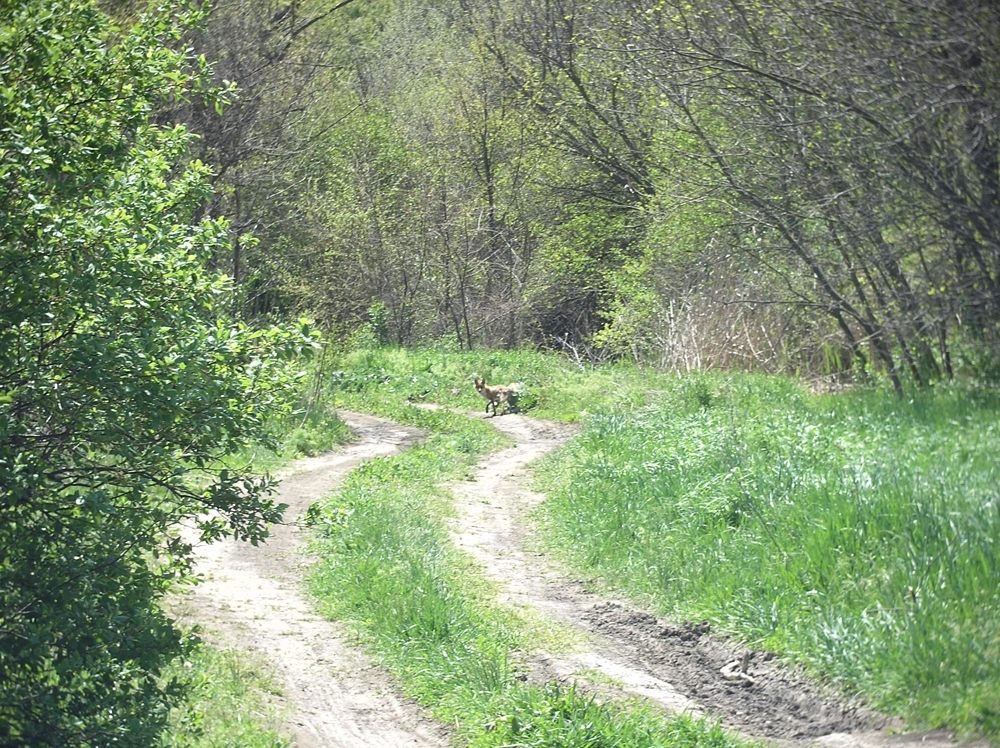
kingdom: Animalia
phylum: Chordata
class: Mammalia
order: Carnivora
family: Canidae
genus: Vulpes
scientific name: Vulpes vulpes
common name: Red fox
